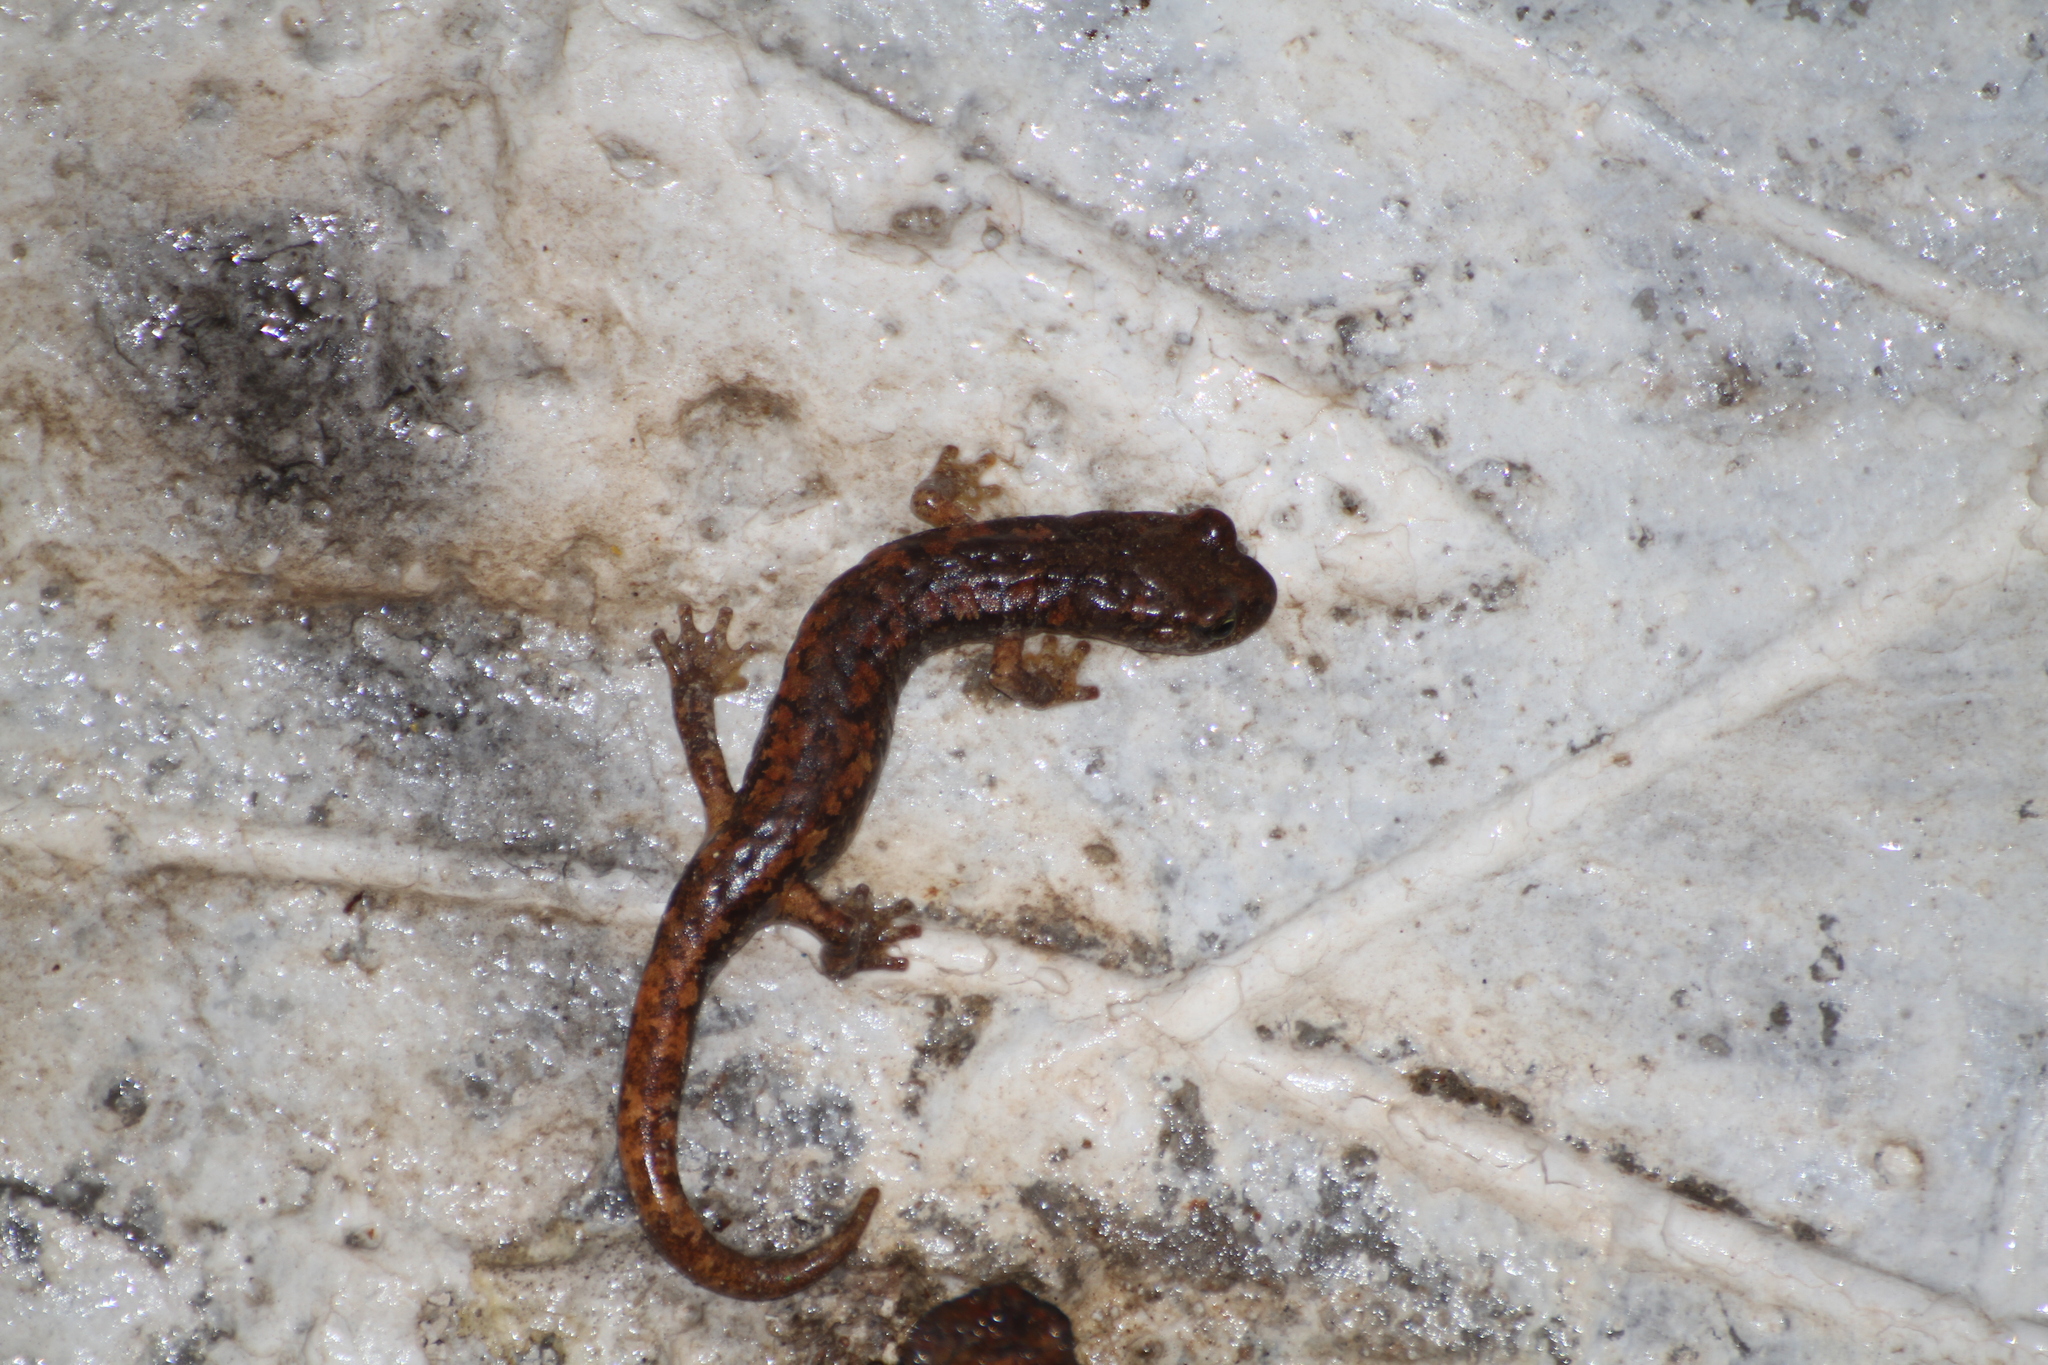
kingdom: Animalia
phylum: Chordata
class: Amphibia
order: Caudata
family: Plethodontidae
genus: Speleomantes
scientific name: Speleomantes strinatii
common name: French cave salamander
